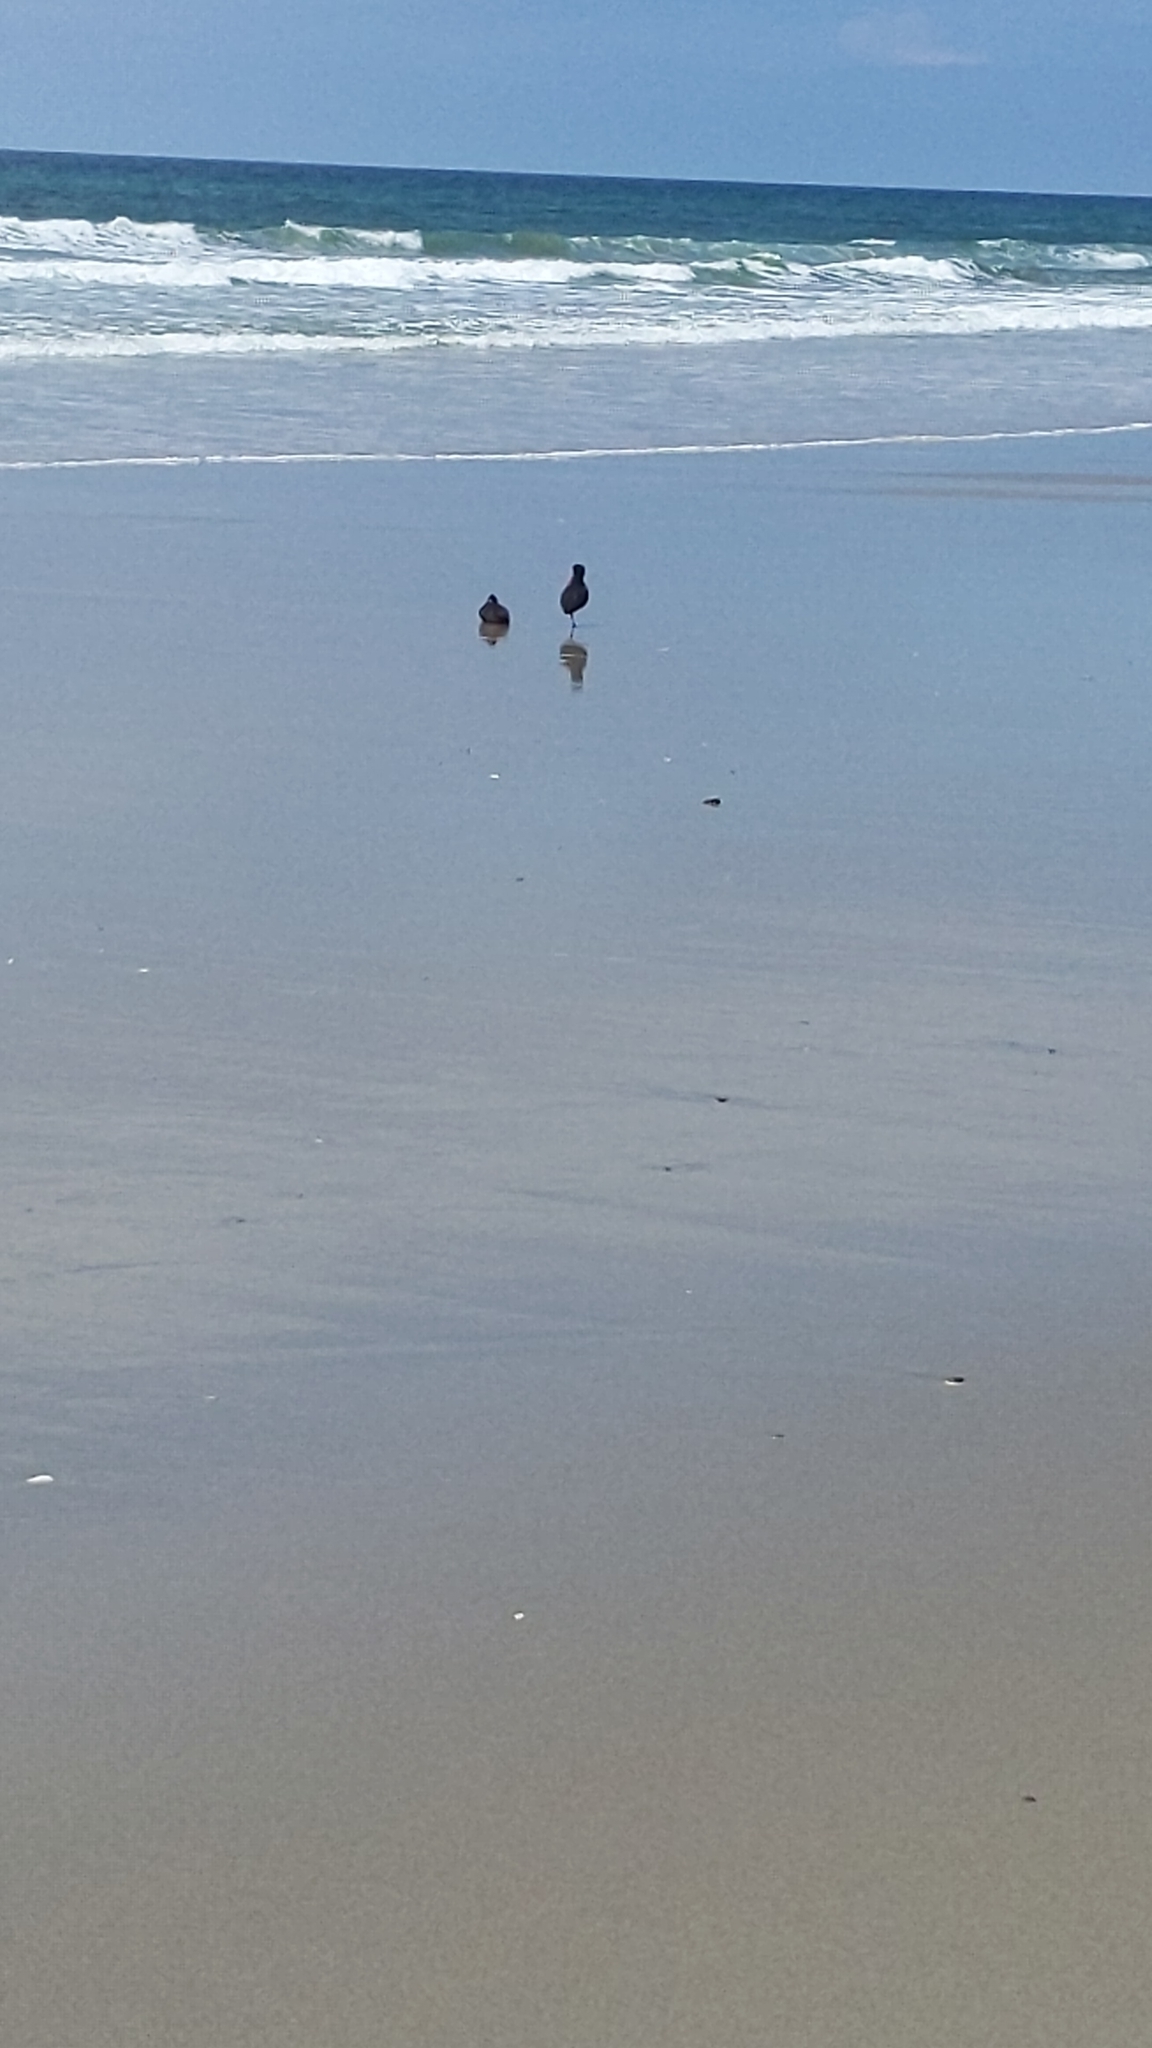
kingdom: Animalia
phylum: Chordata
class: Aves
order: Charadriiformes
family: Haematopodidae
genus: Haematopus
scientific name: Haematopus unicolor
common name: Variable oystercatcher
